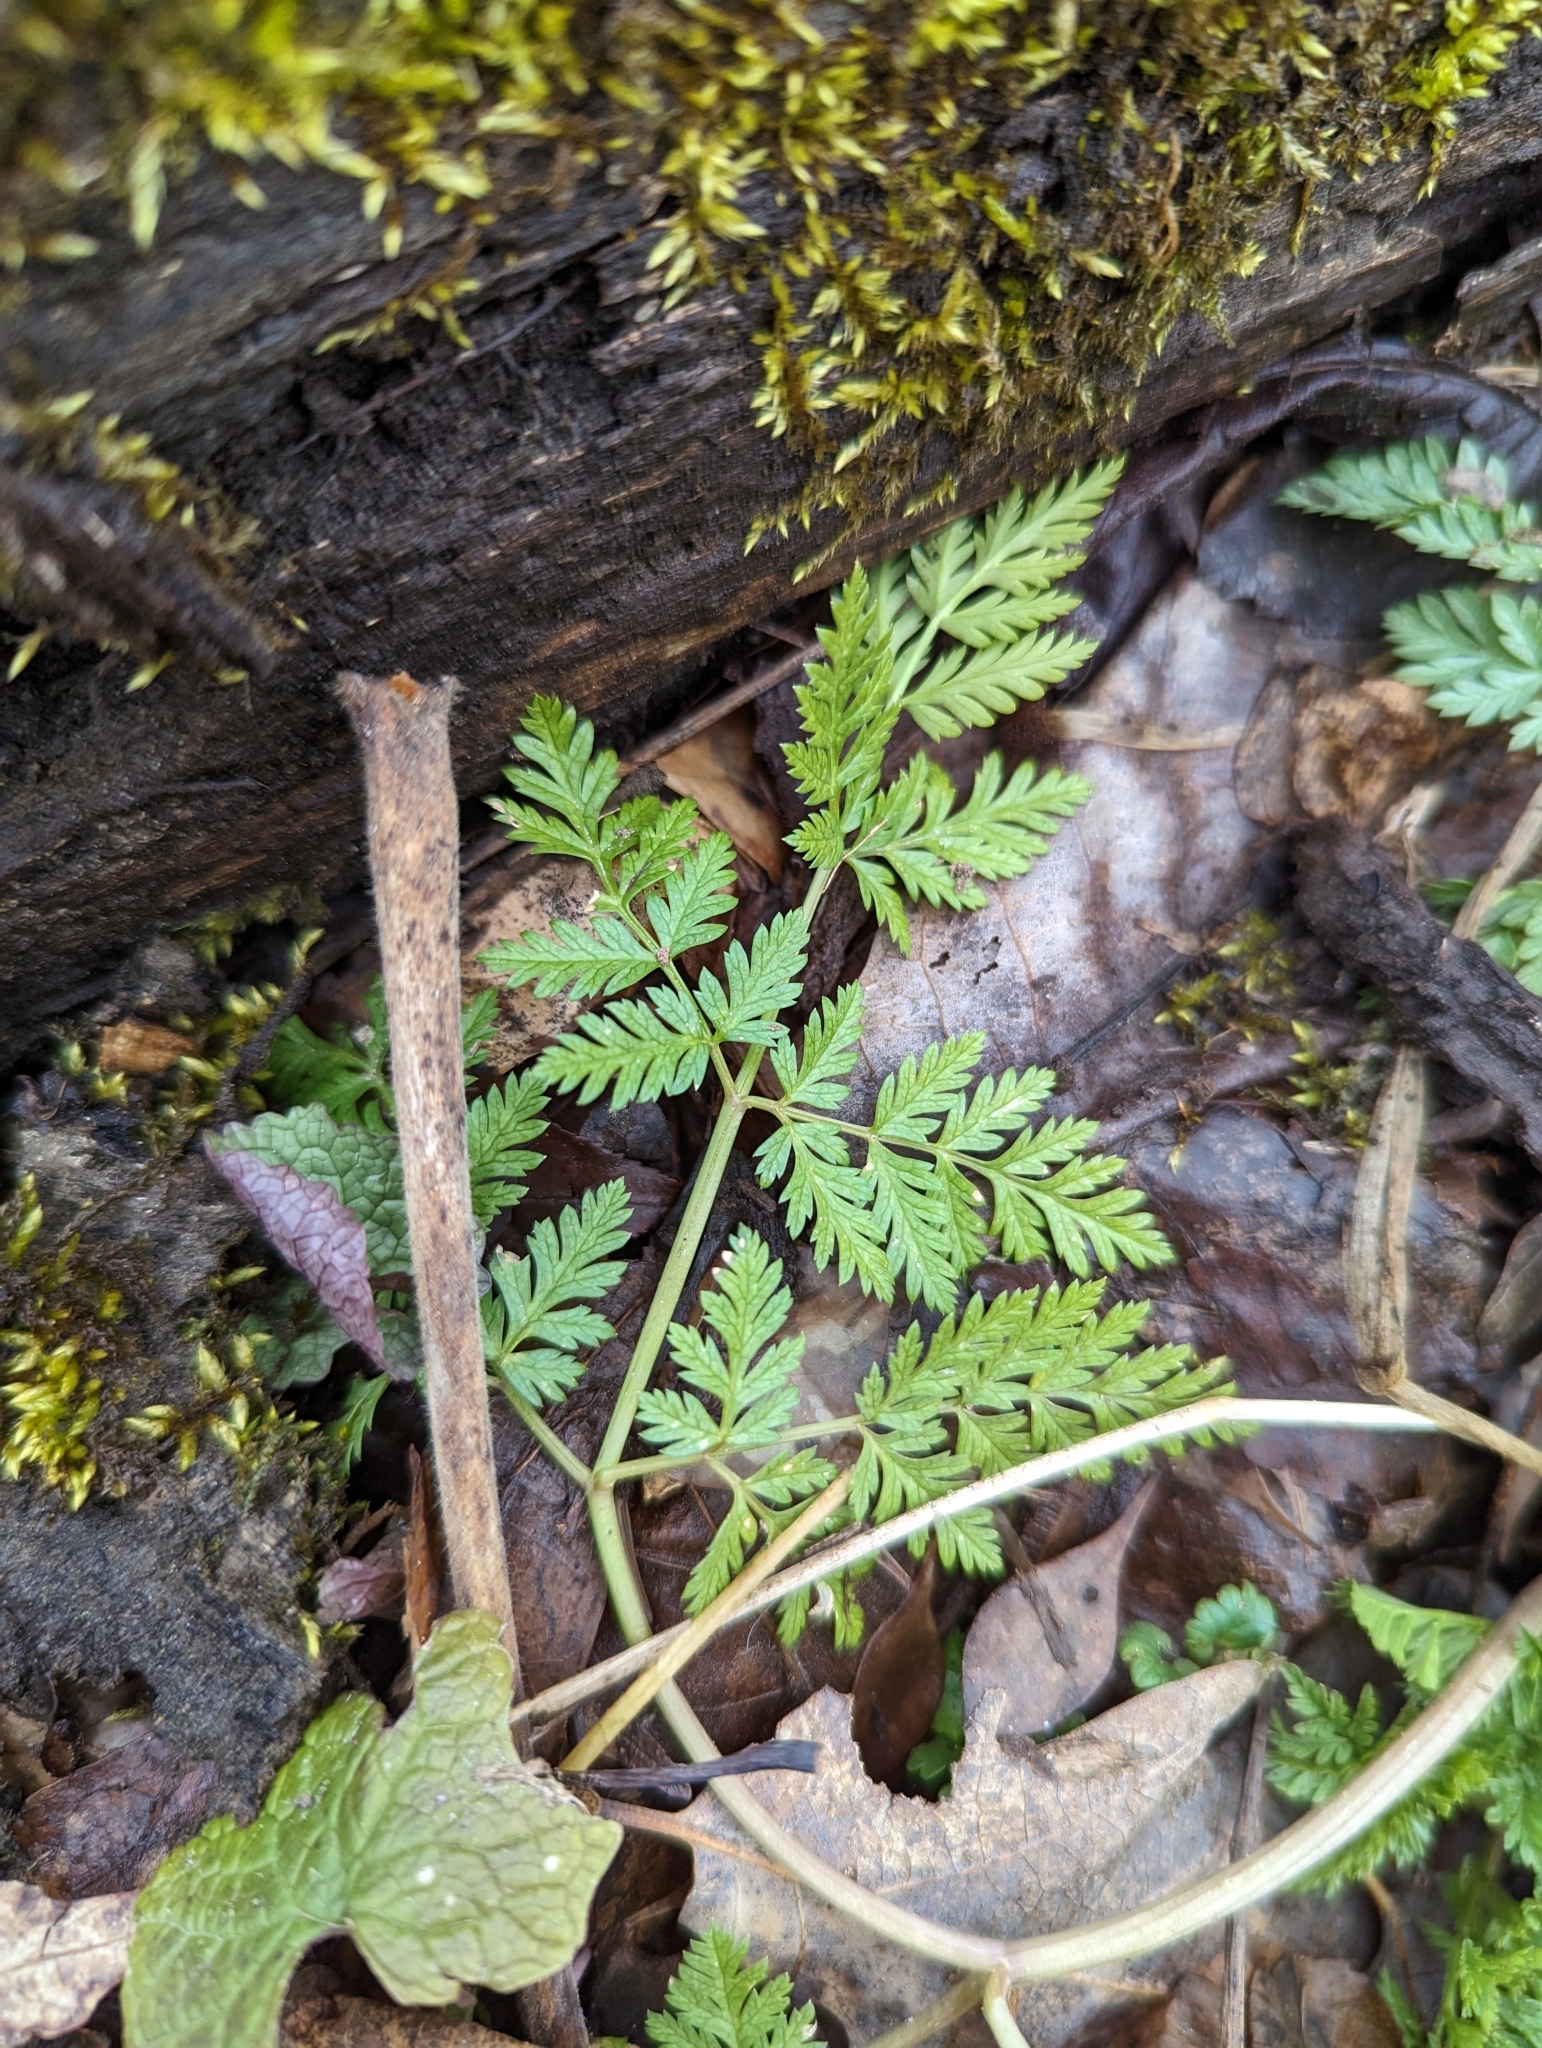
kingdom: Plantae
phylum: Tracheophyta
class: Magnoliopsida
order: Apiales
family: Apiaceae
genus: Conium
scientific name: Conium maculatum
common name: Hemlock
